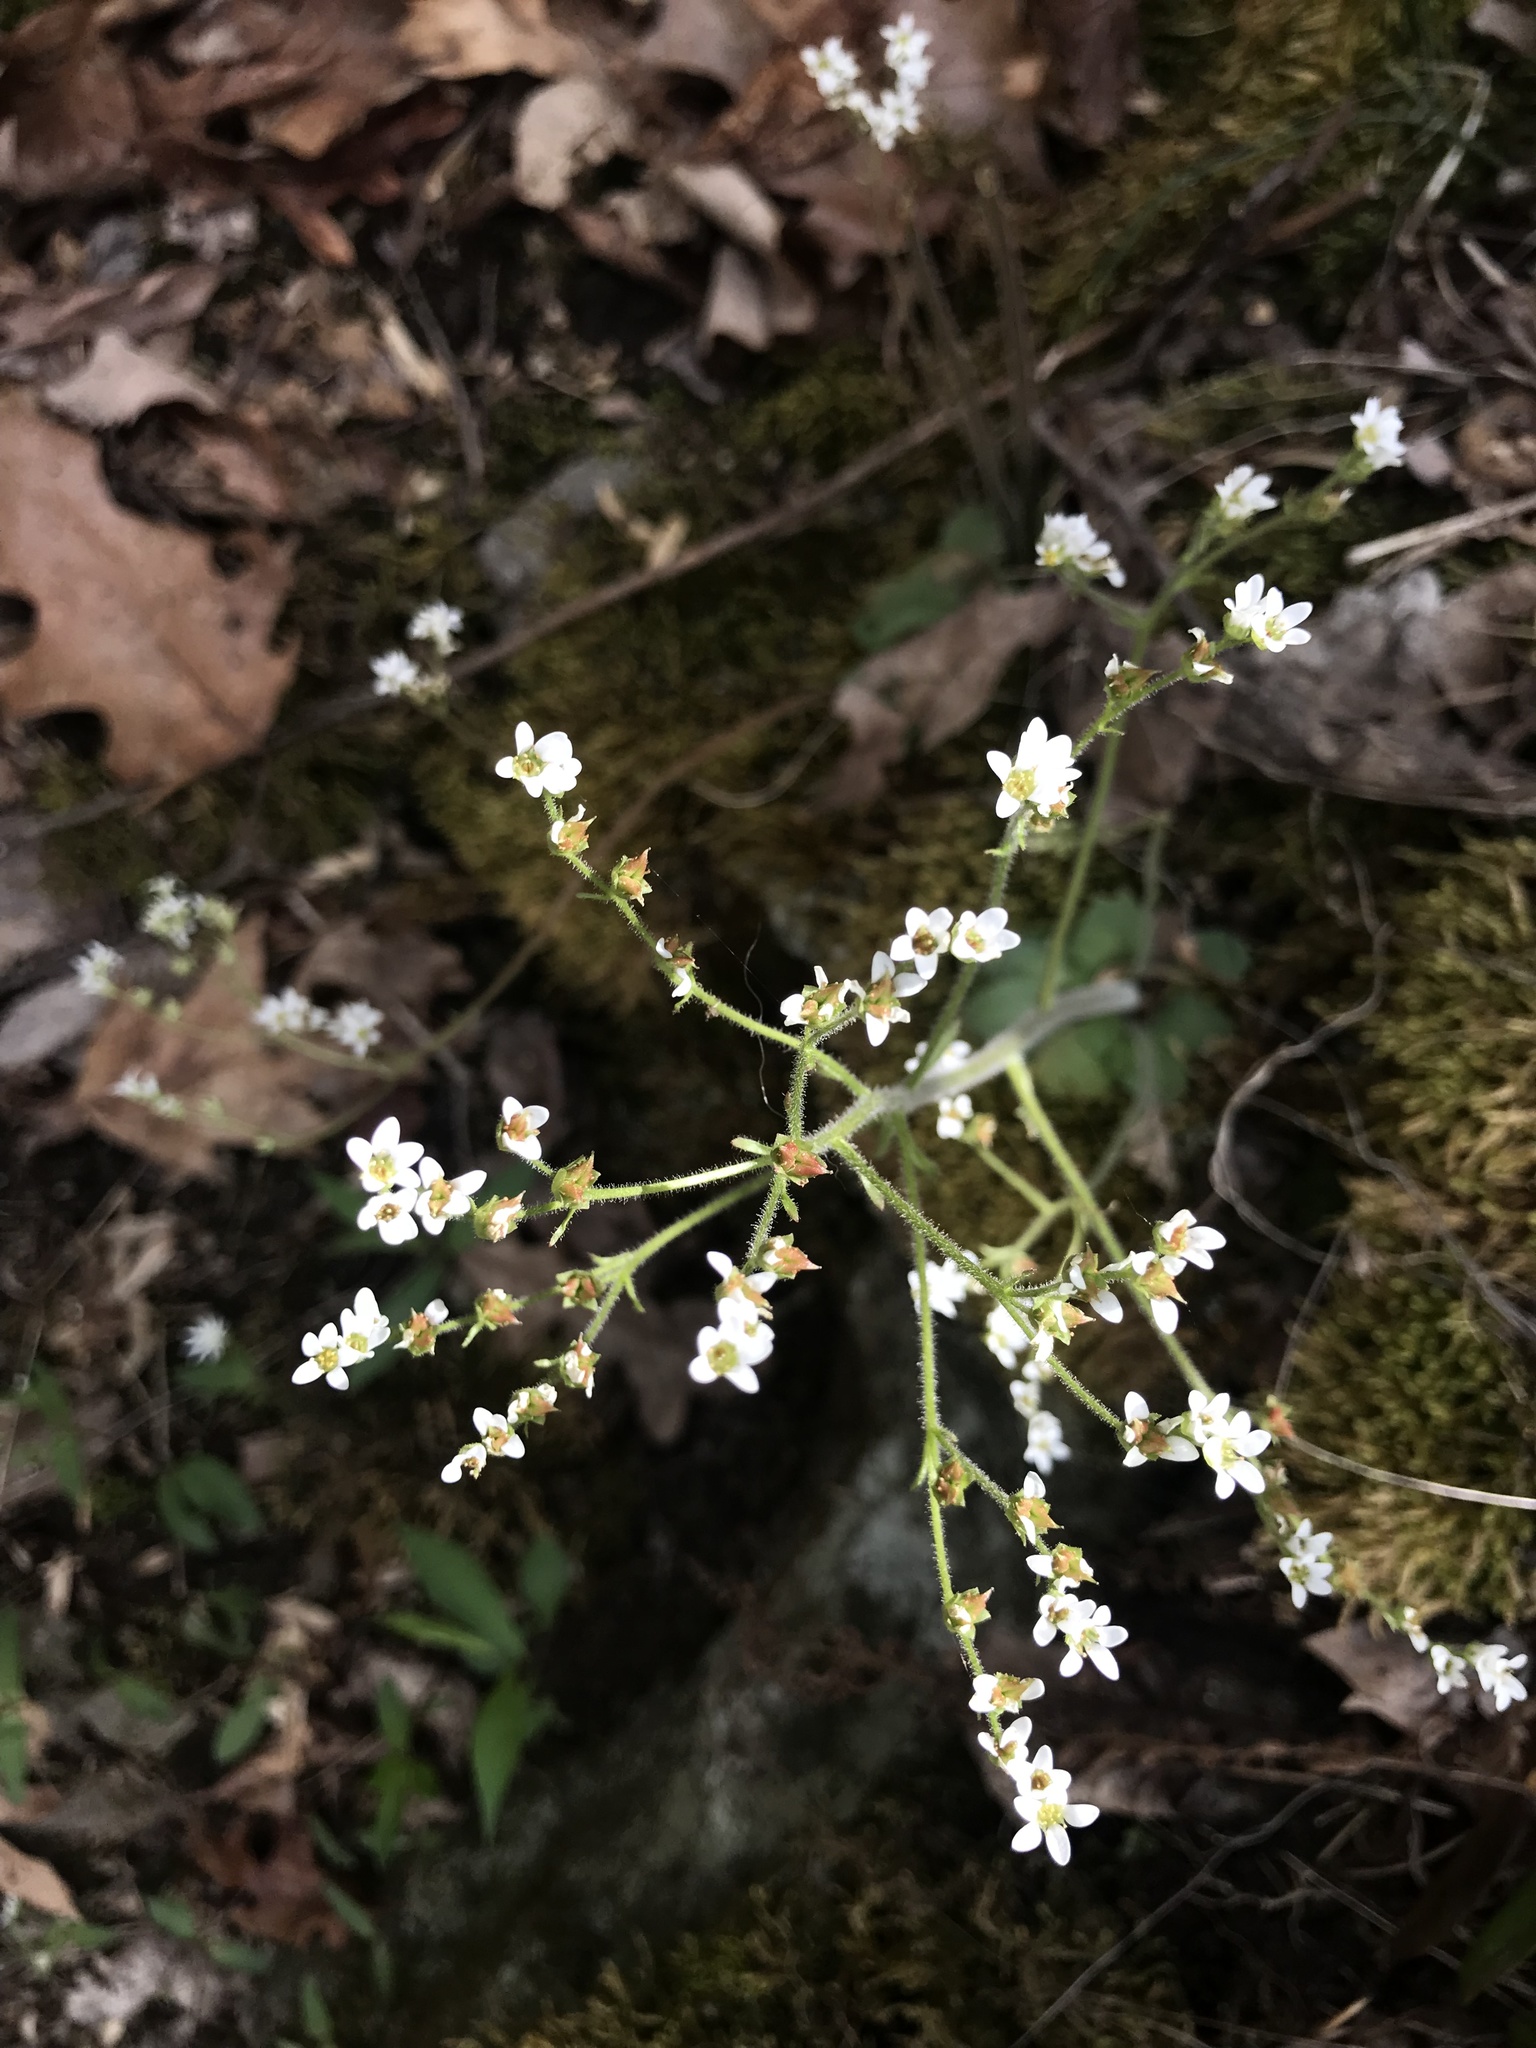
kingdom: Plantae
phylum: Tracheophyta
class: Magnoliopsida
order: Saxifragales
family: Saxifragaceae
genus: Micranthes
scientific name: Micranthes virginiensis
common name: Early saxifrage
